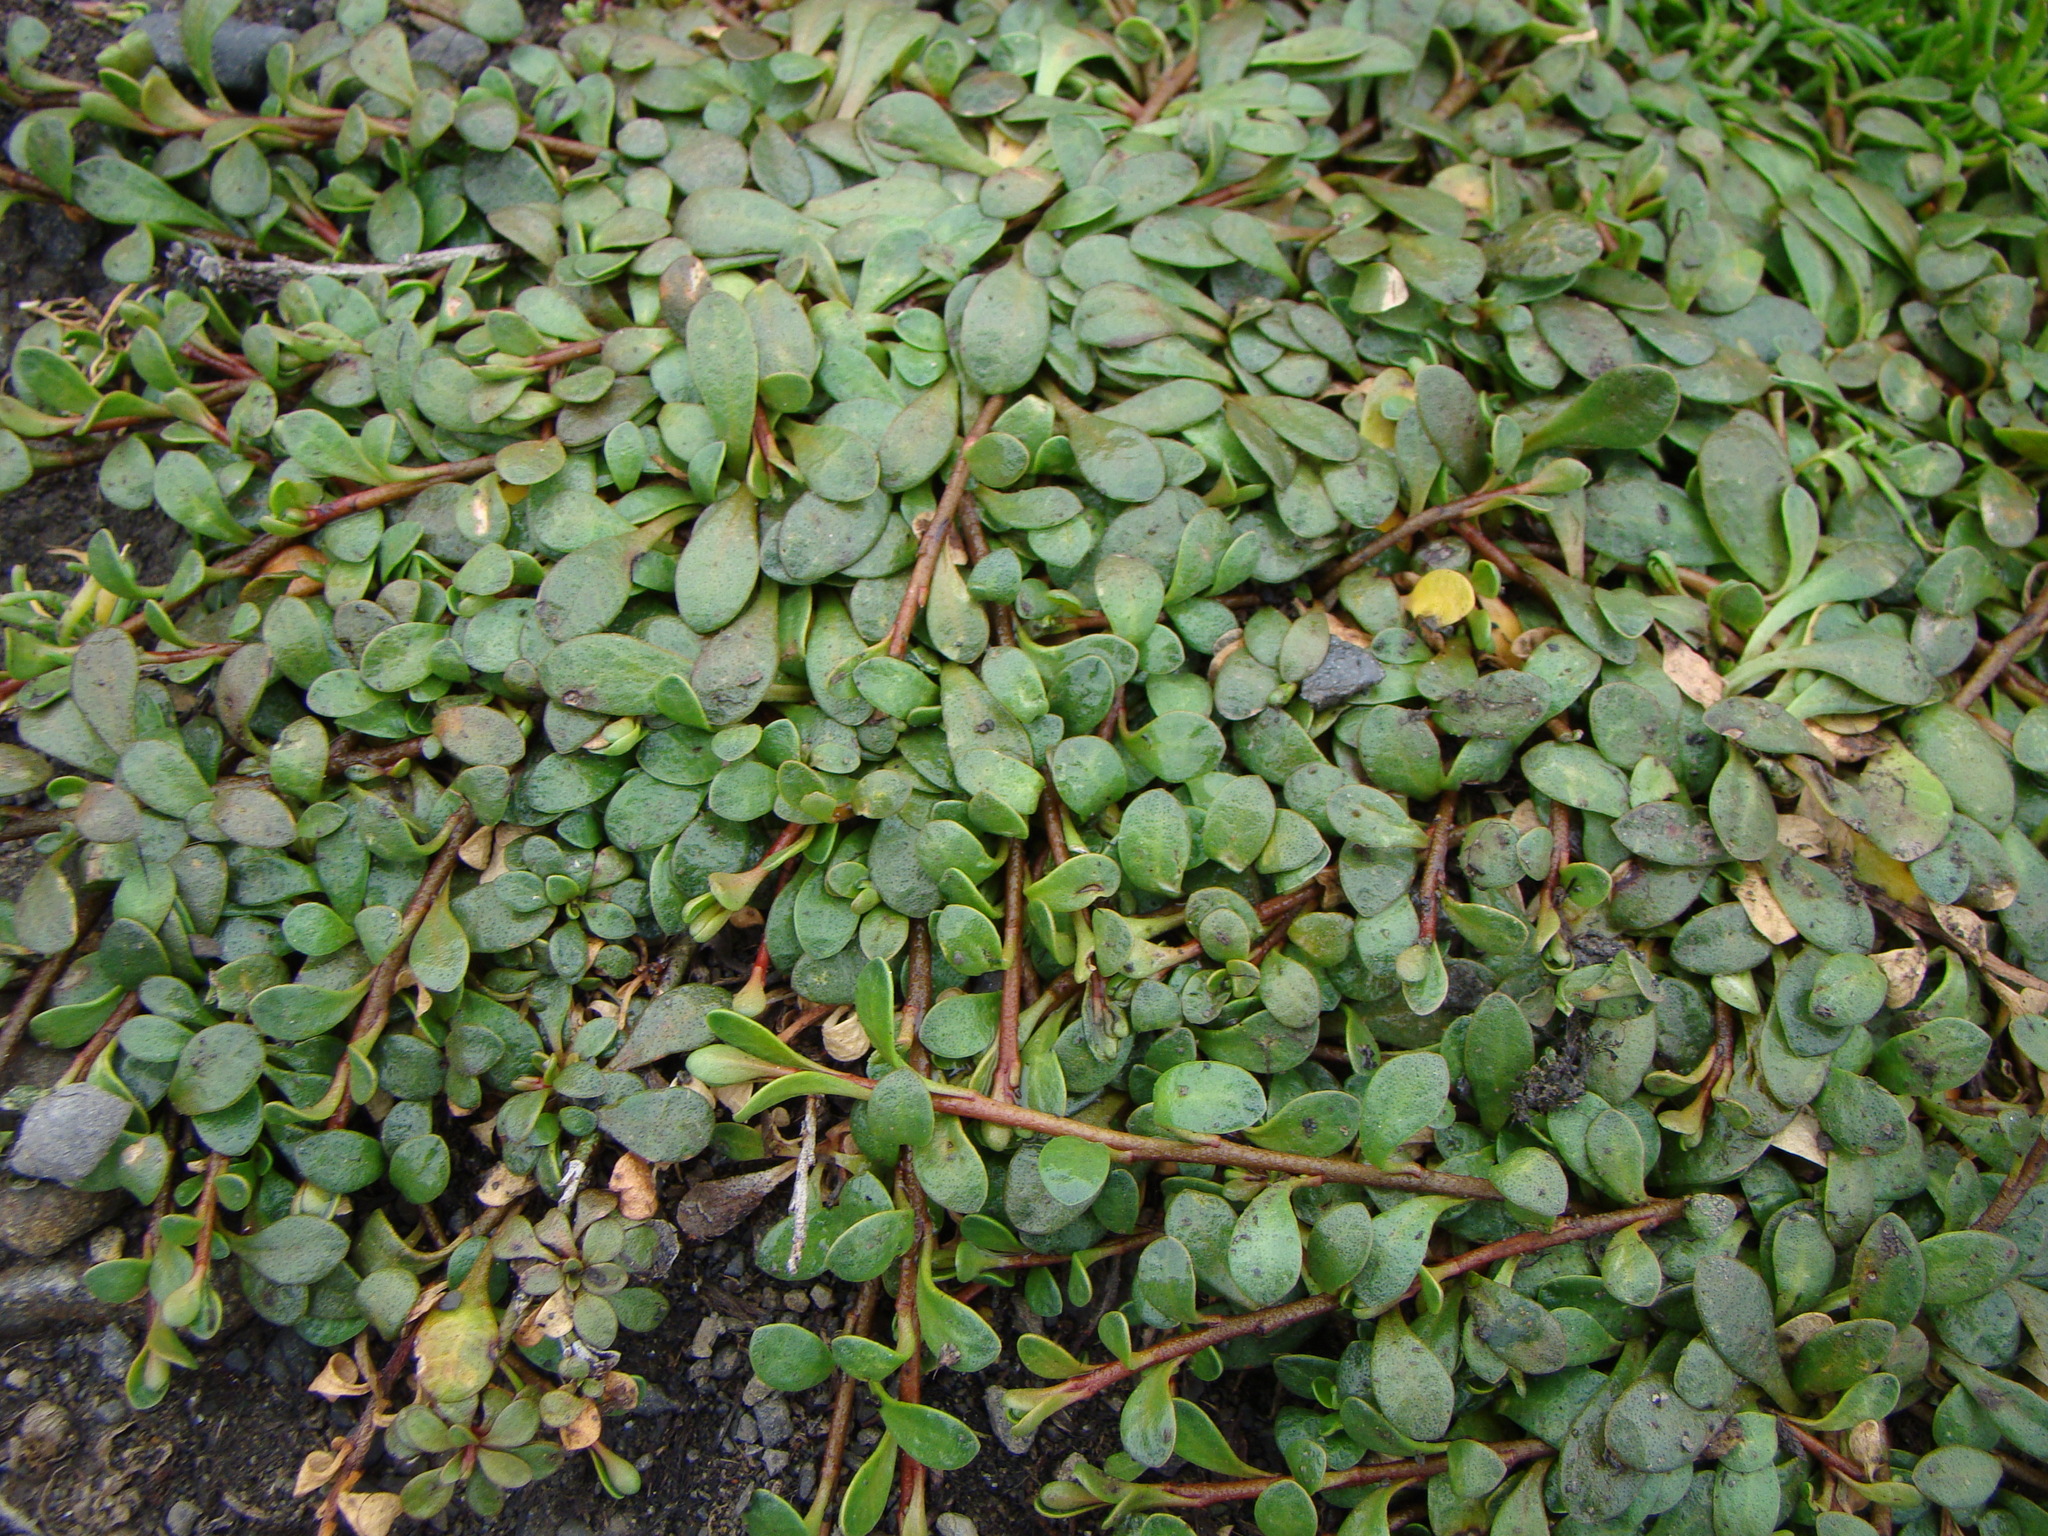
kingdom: Plantae
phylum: Tracheophyta
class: Magnoliopsida
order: Ericales
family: Primulaceae
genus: Samolus
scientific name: Samolus repens
